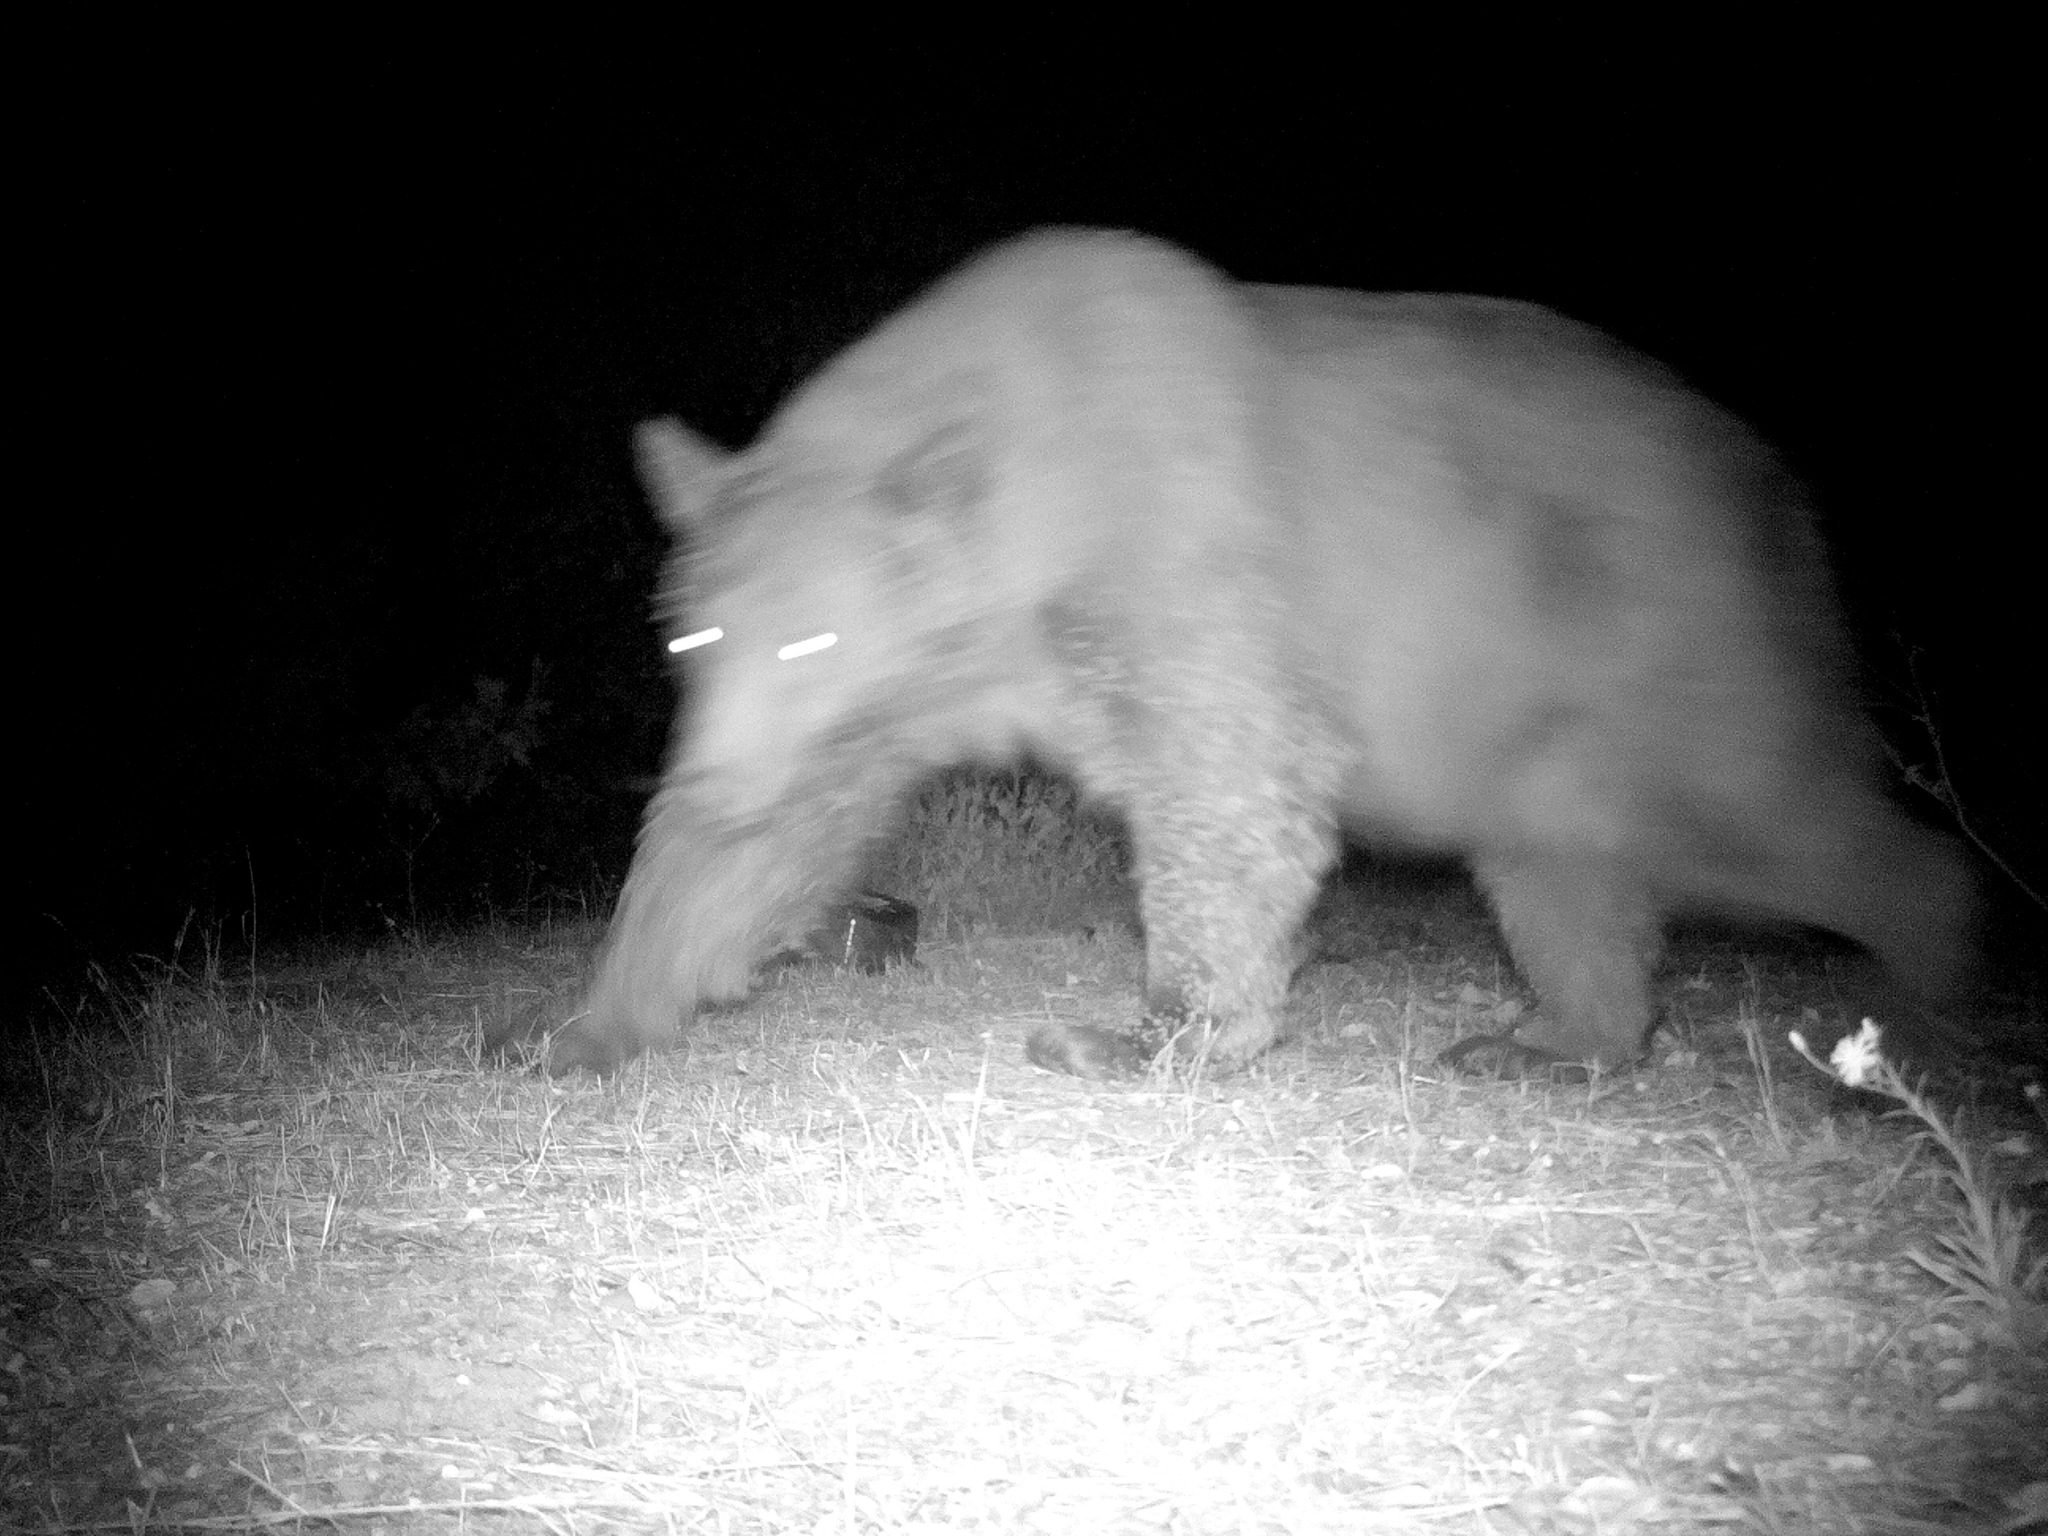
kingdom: Animalia
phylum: Chordata
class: Mammalia
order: Carnivora
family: Ursidae
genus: Ursus
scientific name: Ursus americanus
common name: American black bear
